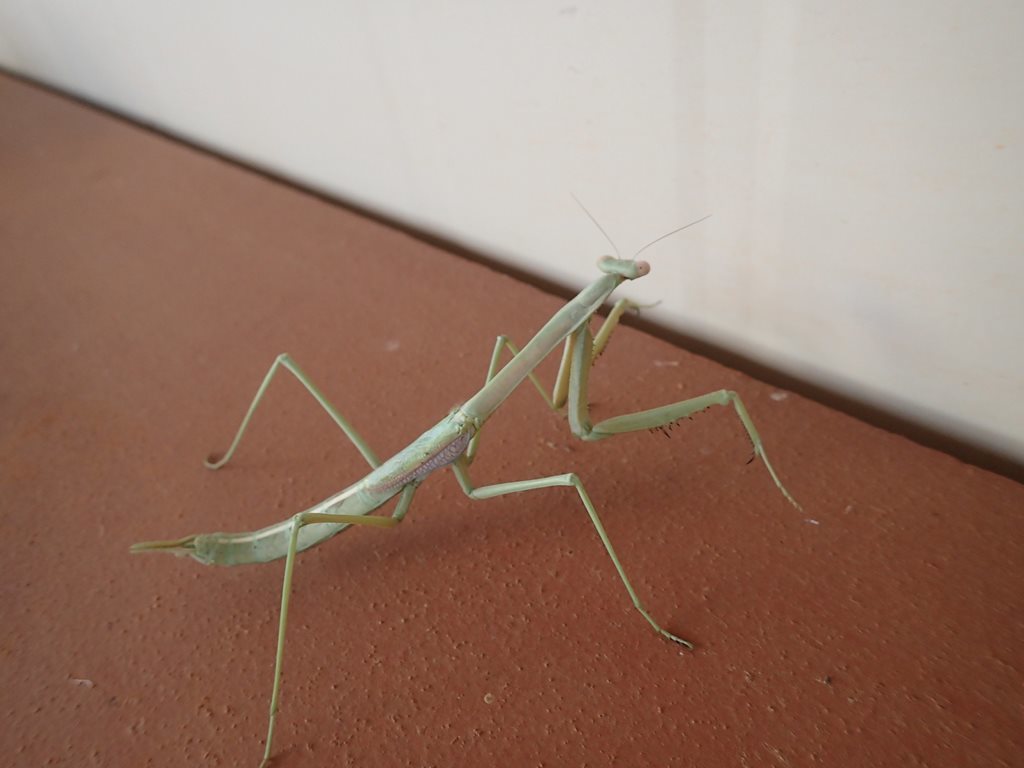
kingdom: Animalia
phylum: Arthropoda
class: Insecta
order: Mantodea
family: Mantidae
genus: Archimantis
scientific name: Archimantis sobrina
